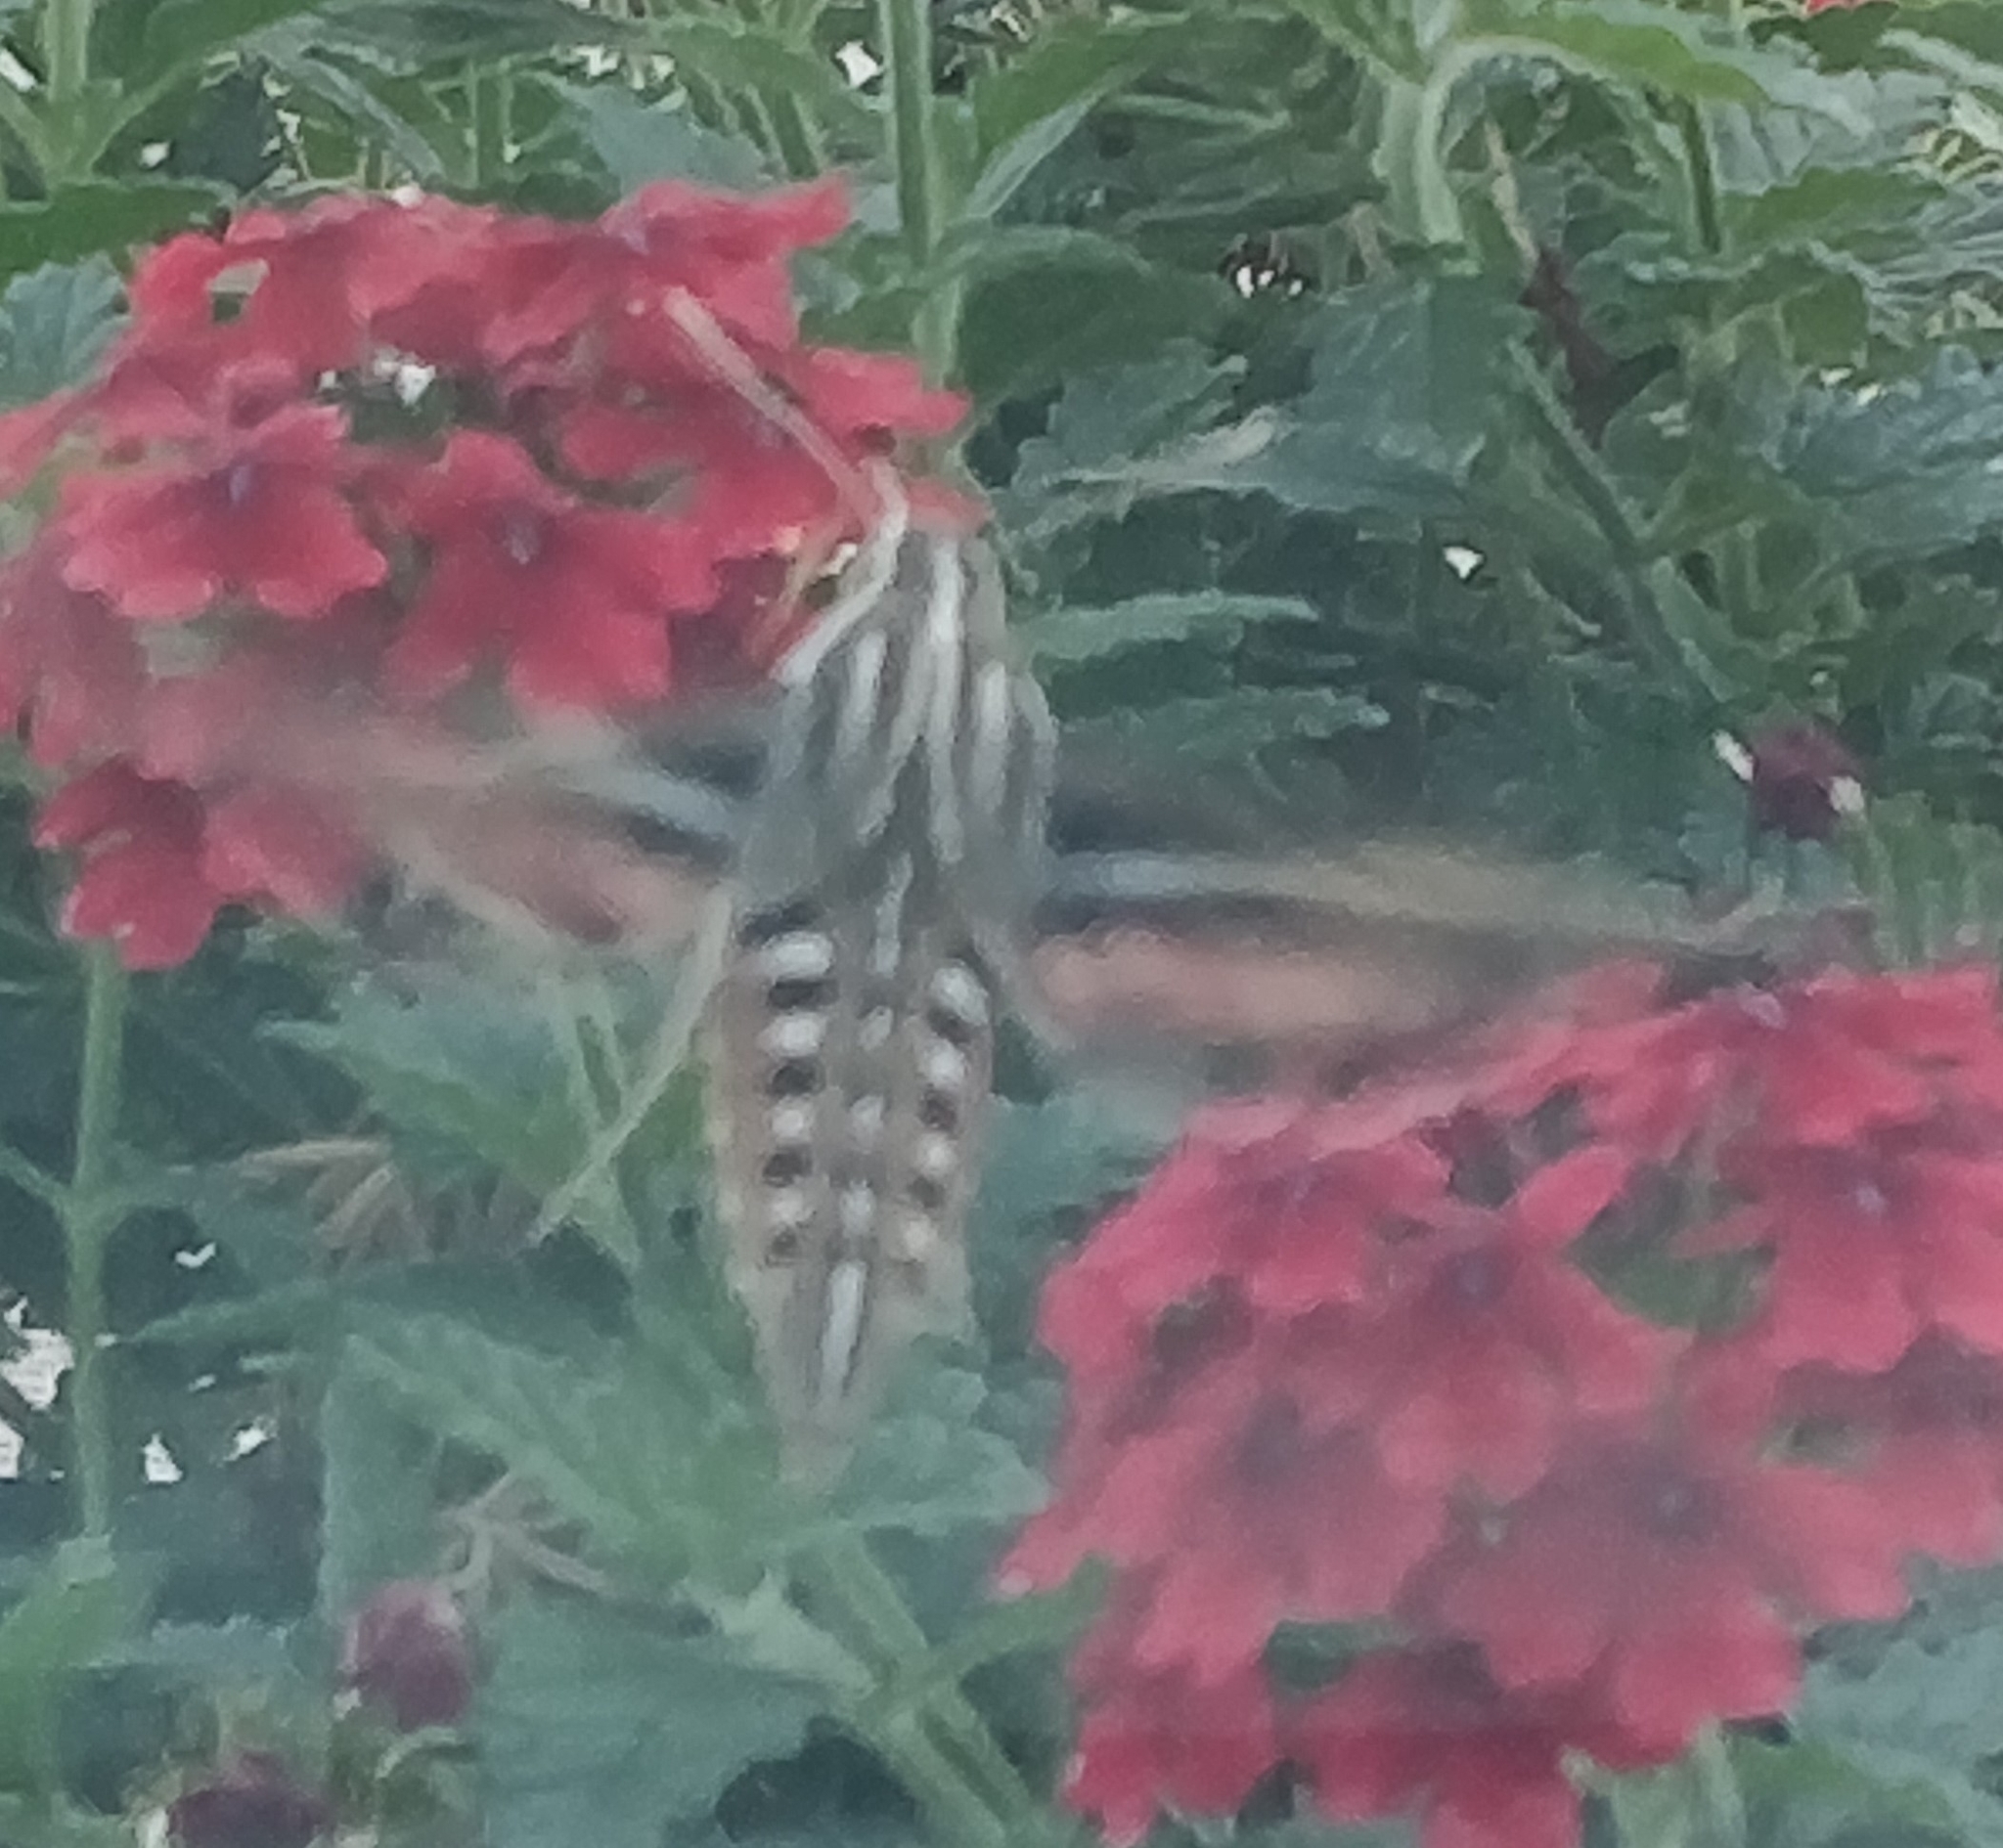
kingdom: Animalia
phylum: Arthropoda
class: Insecta
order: Lepidoptera
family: Sphingidae
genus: Hyles
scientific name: Hyles lineata
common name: White-lined sphinx
